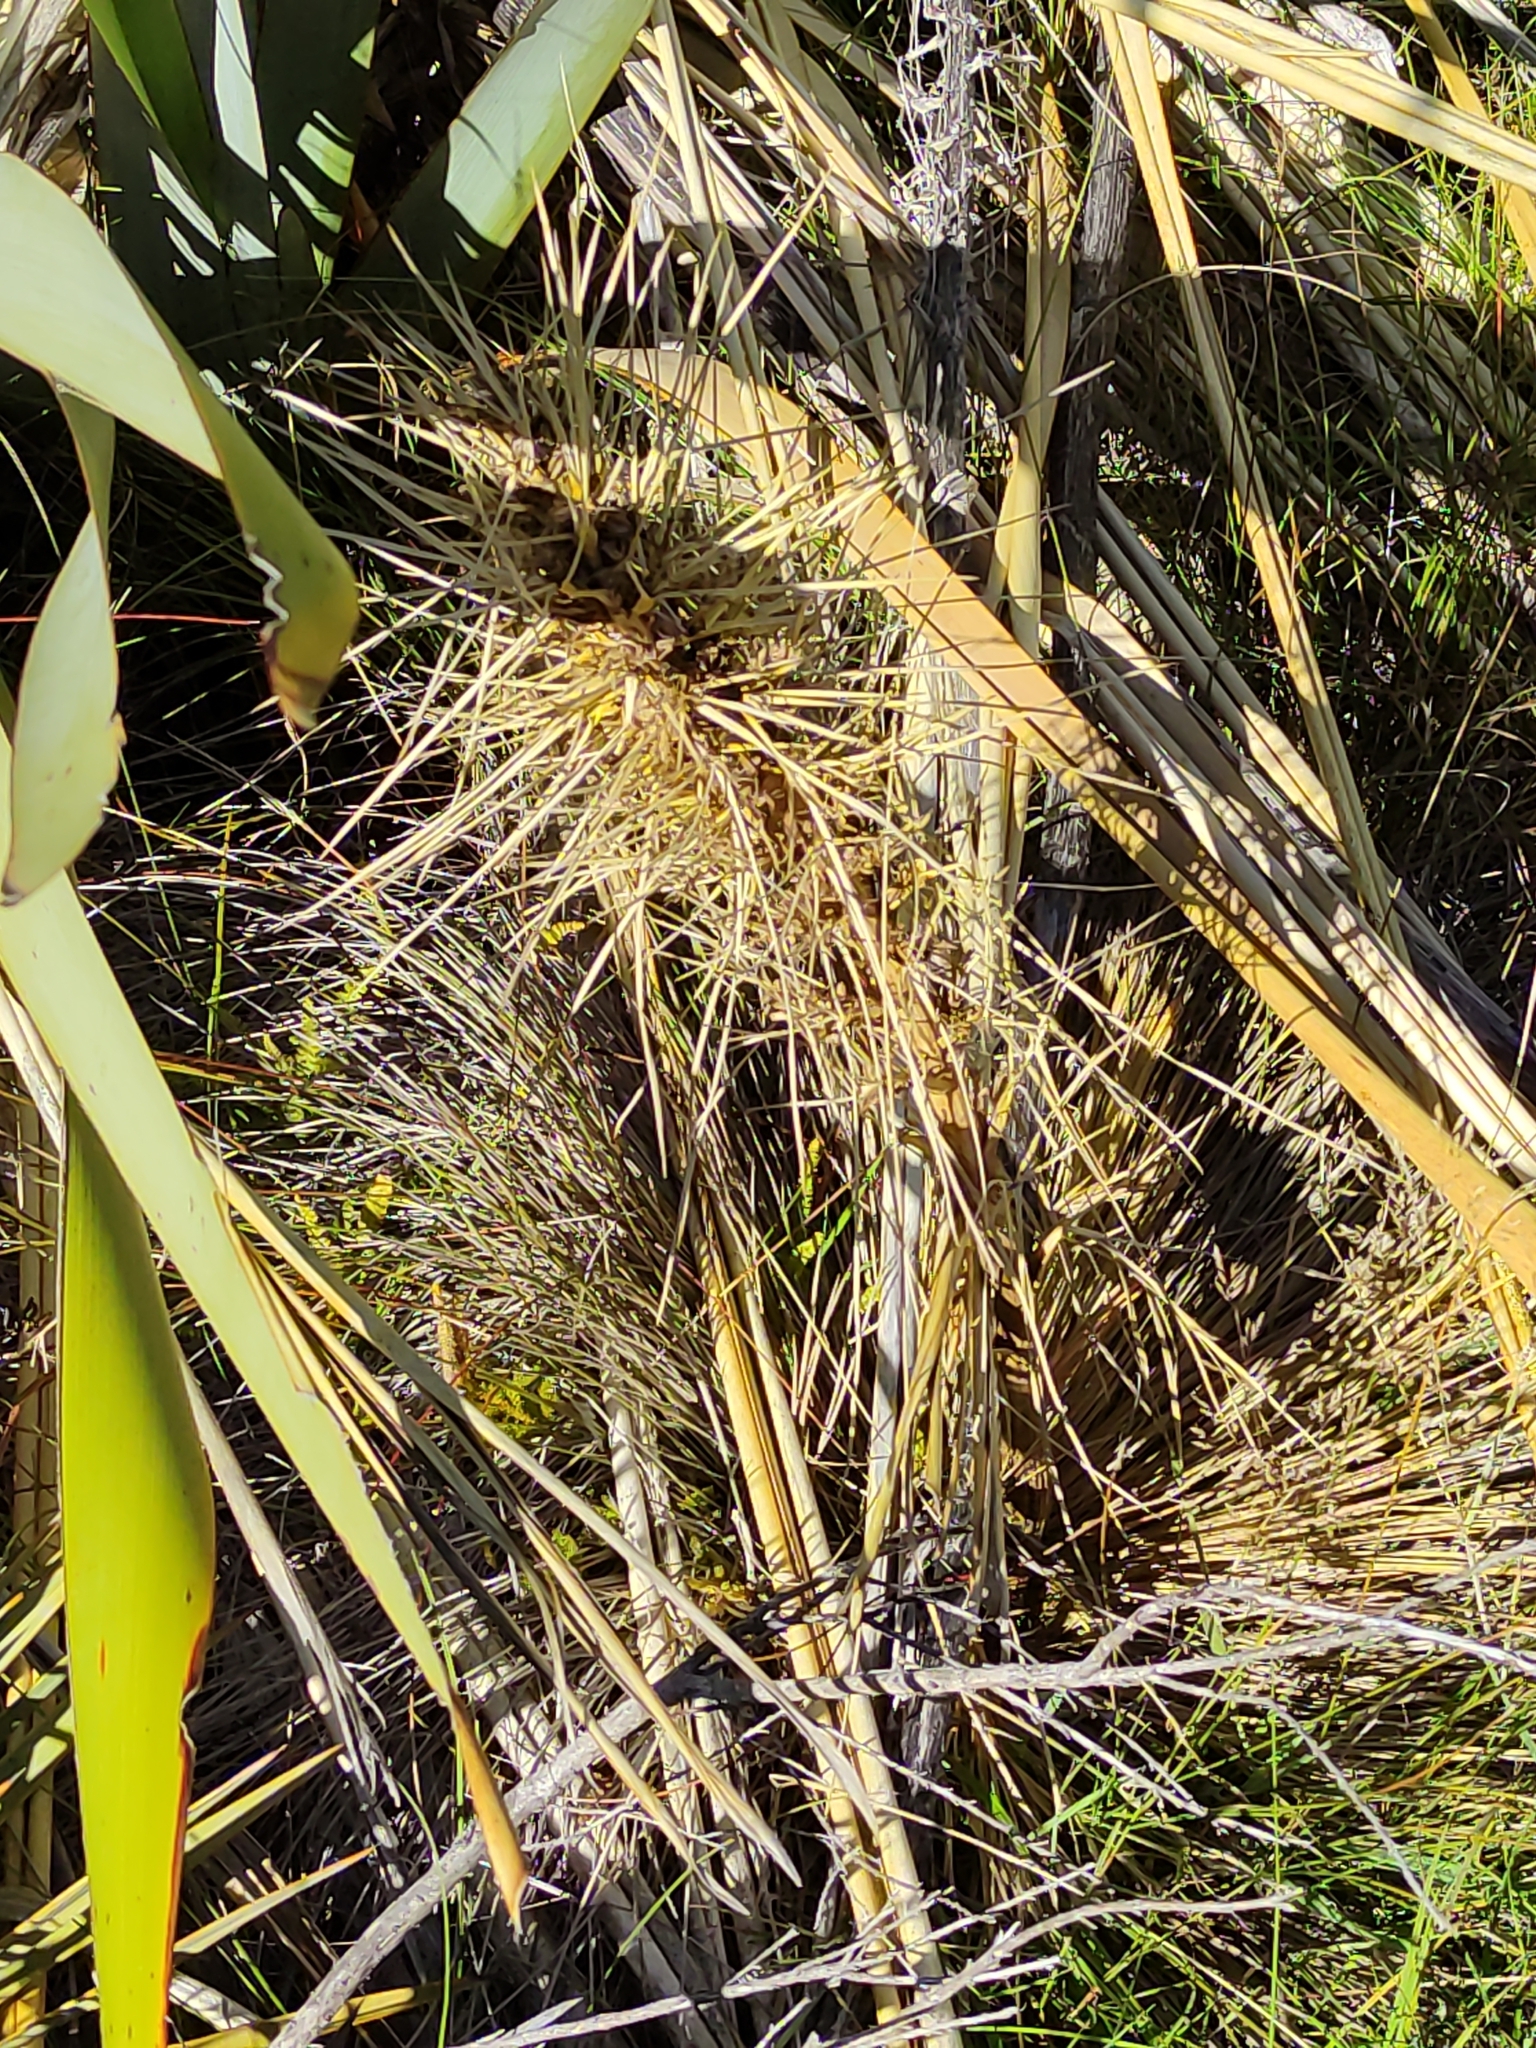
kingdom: Plantae
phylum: Tracheophyta
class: Magnoliopsida
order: Apiales
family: Apiaceae
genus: Aciphylla
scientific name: Aciphylla aurea
